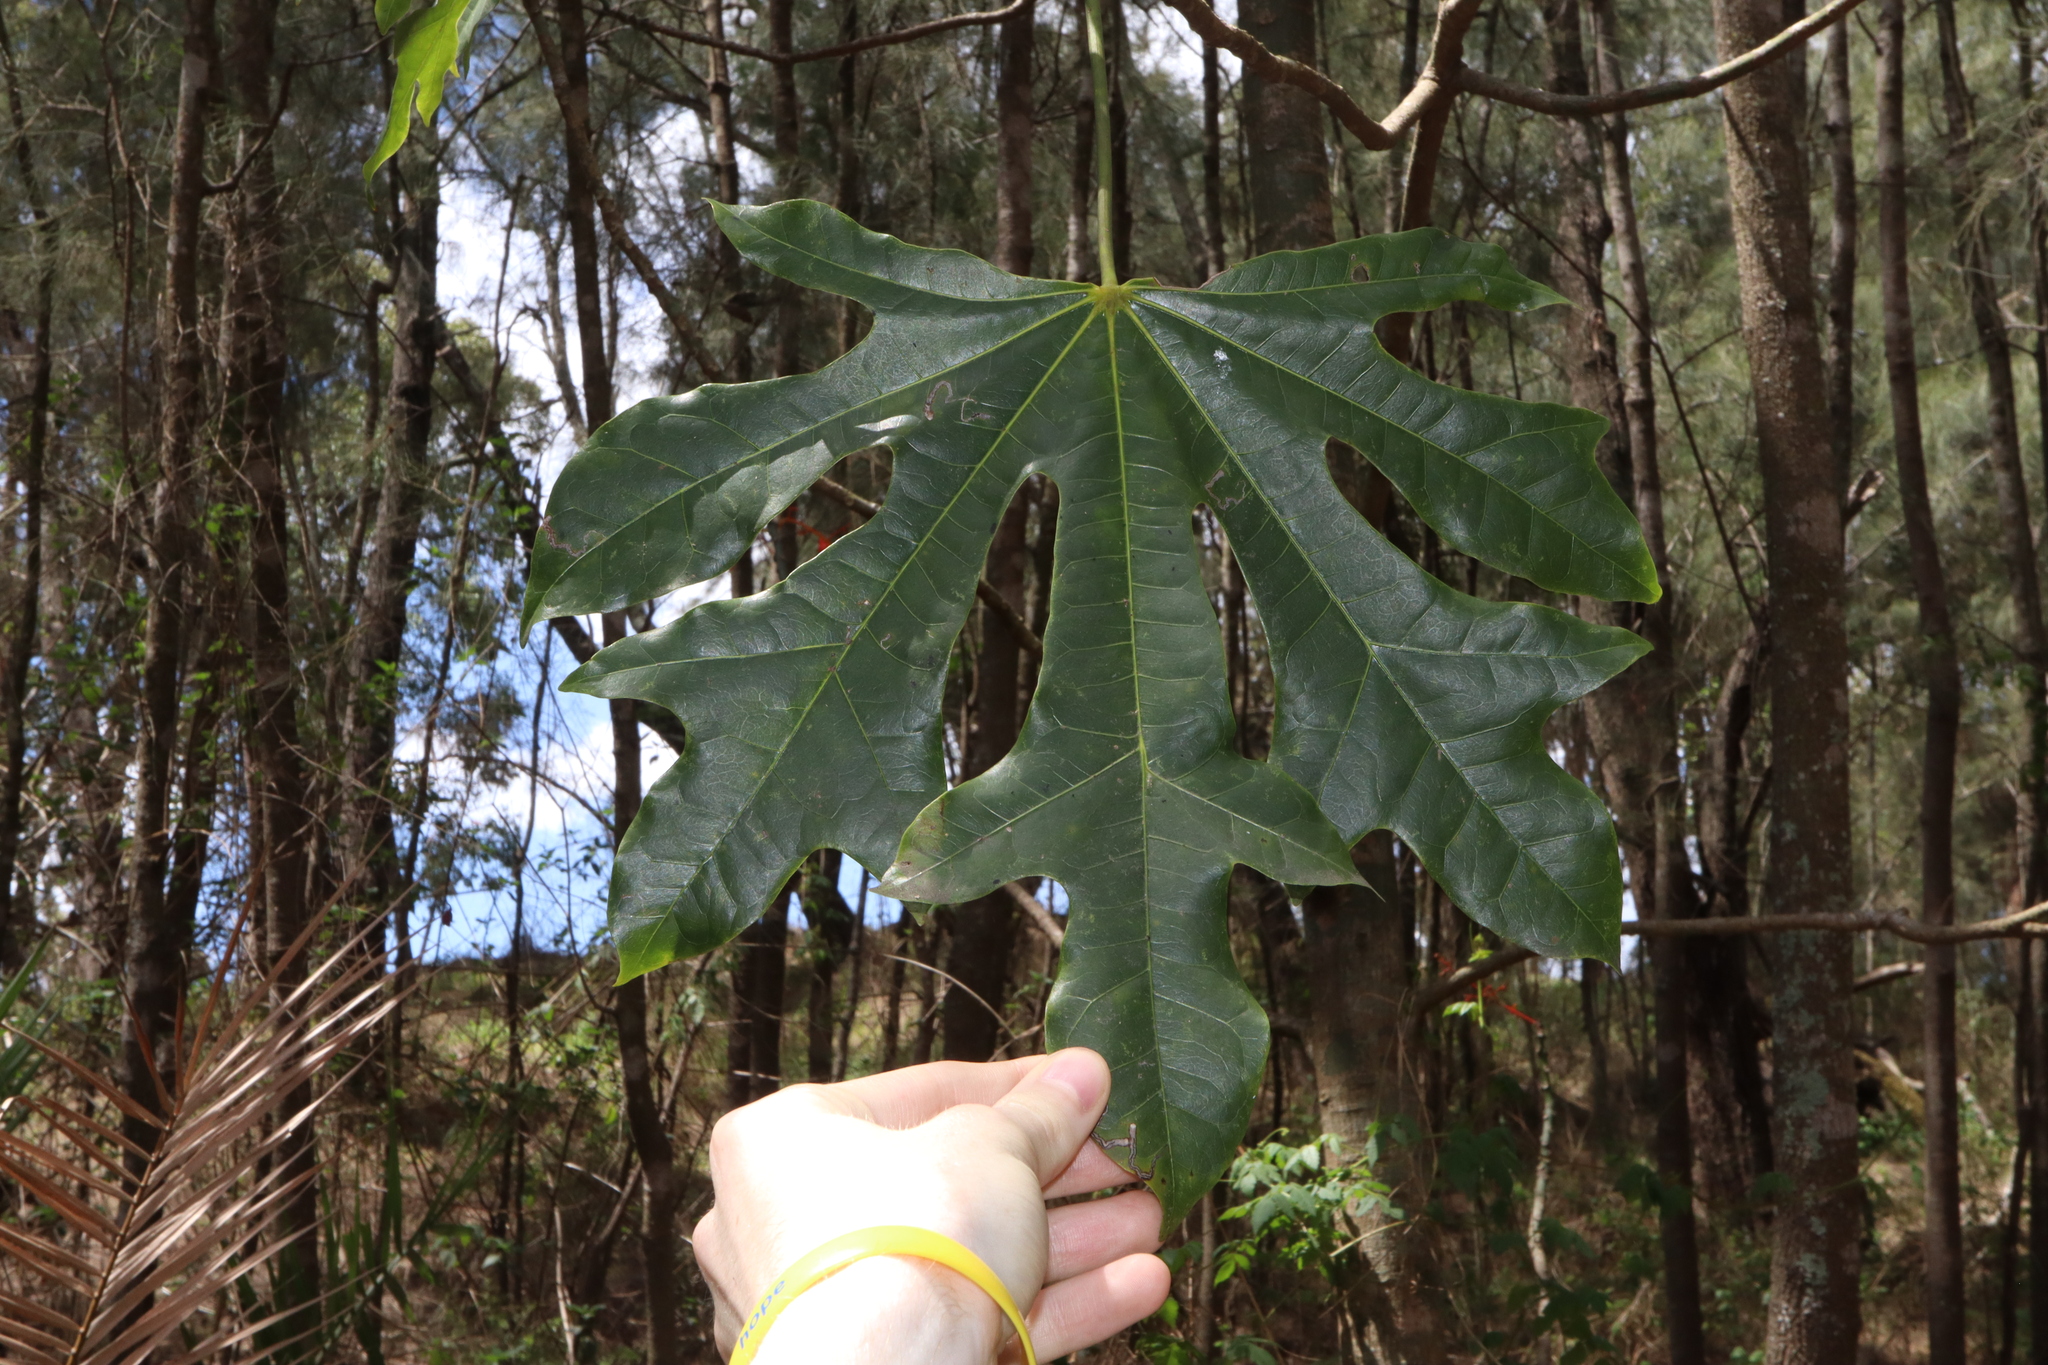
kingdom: Plantae
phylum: Tracheophyta
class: Magnoliopsida
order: Malvales
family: Malvaceae
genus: Brachychiton
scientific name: Brachychiton acerifolius
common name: Illawarra flame tree
